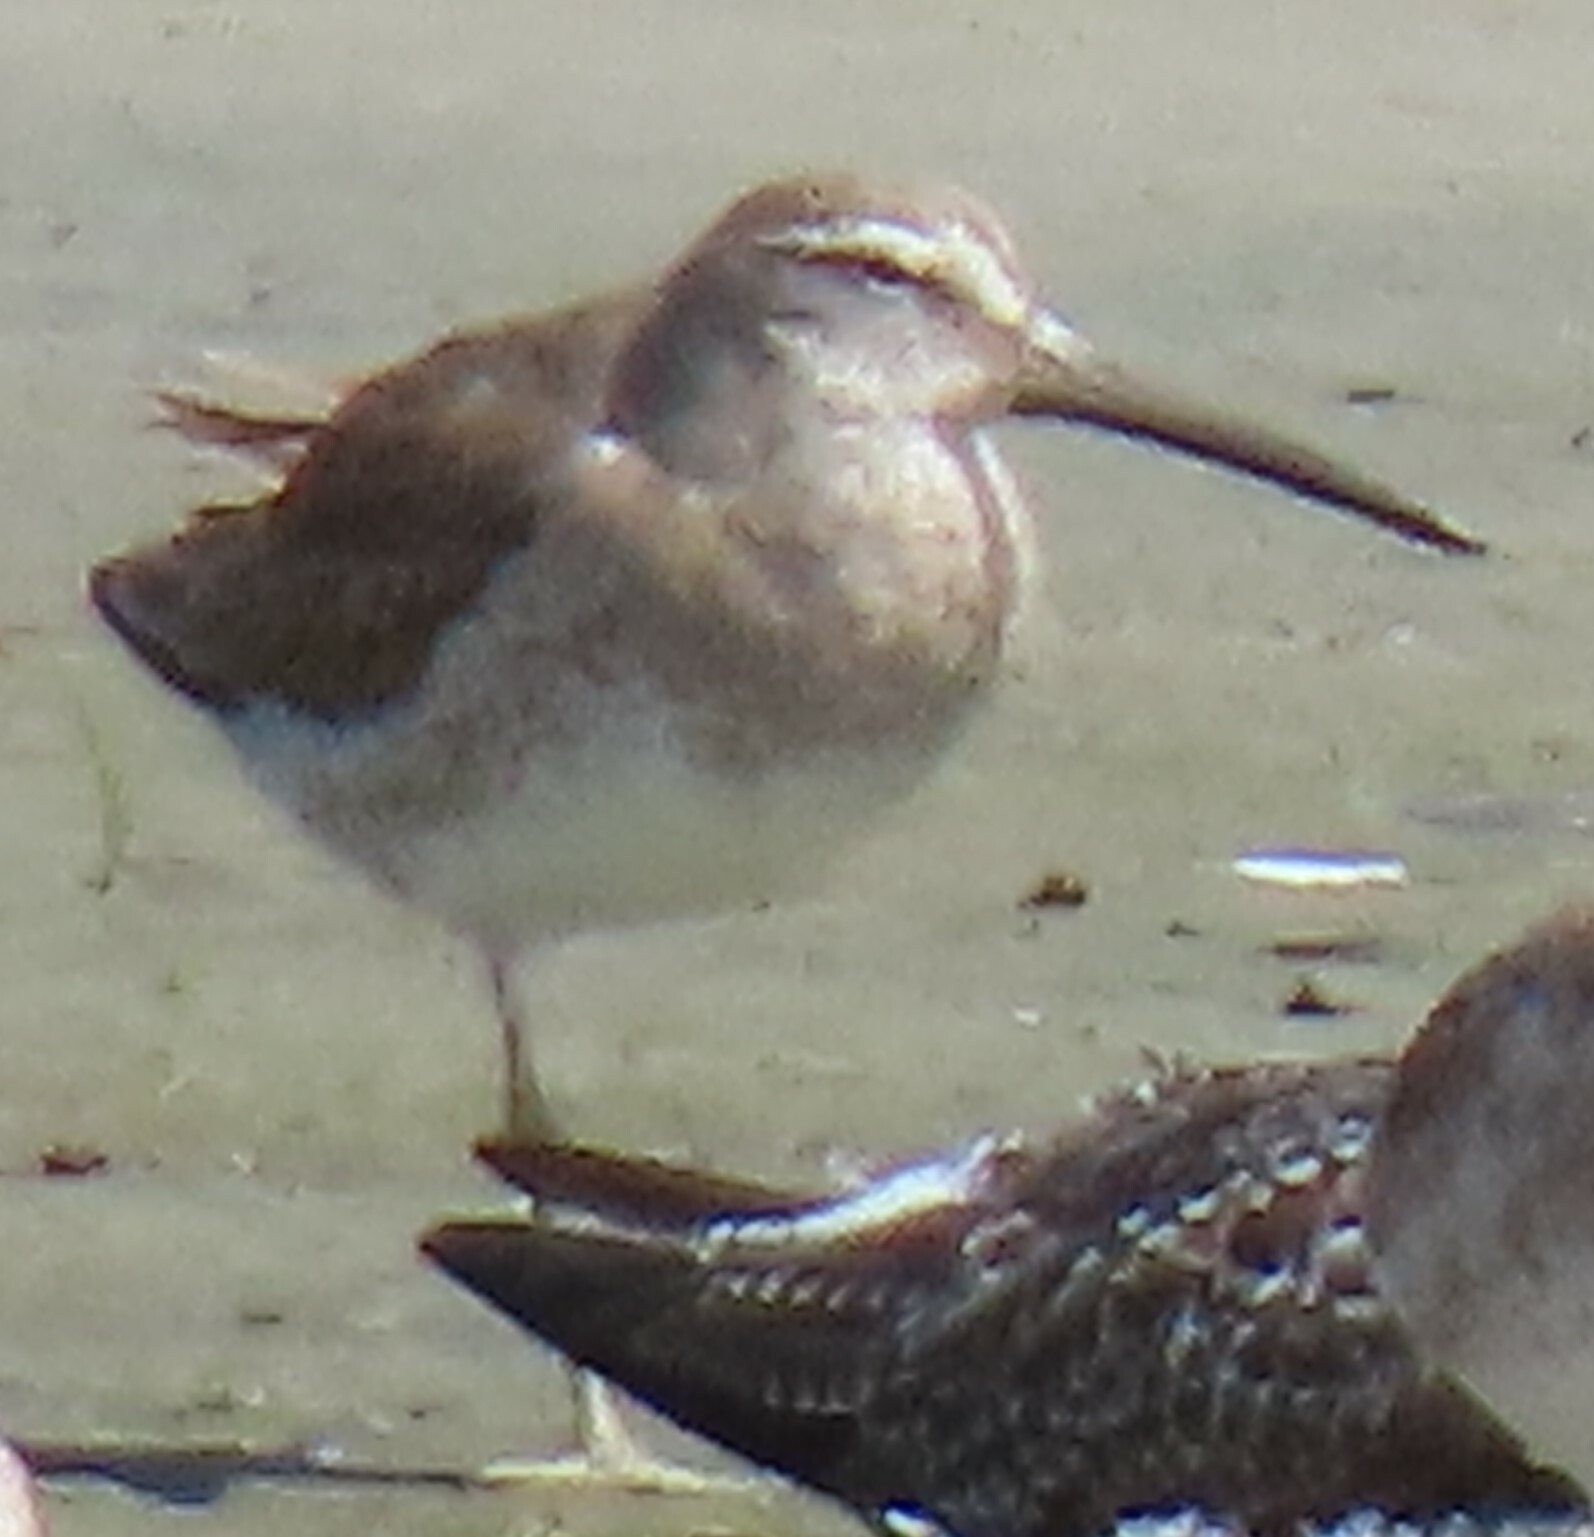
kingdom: Animalia
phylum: Chordata
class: Aves
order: Charadriiformes
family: Scolopacidae
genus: Limnodromus
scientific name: Limnodromus griseus
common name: Short-billed dowitcher
